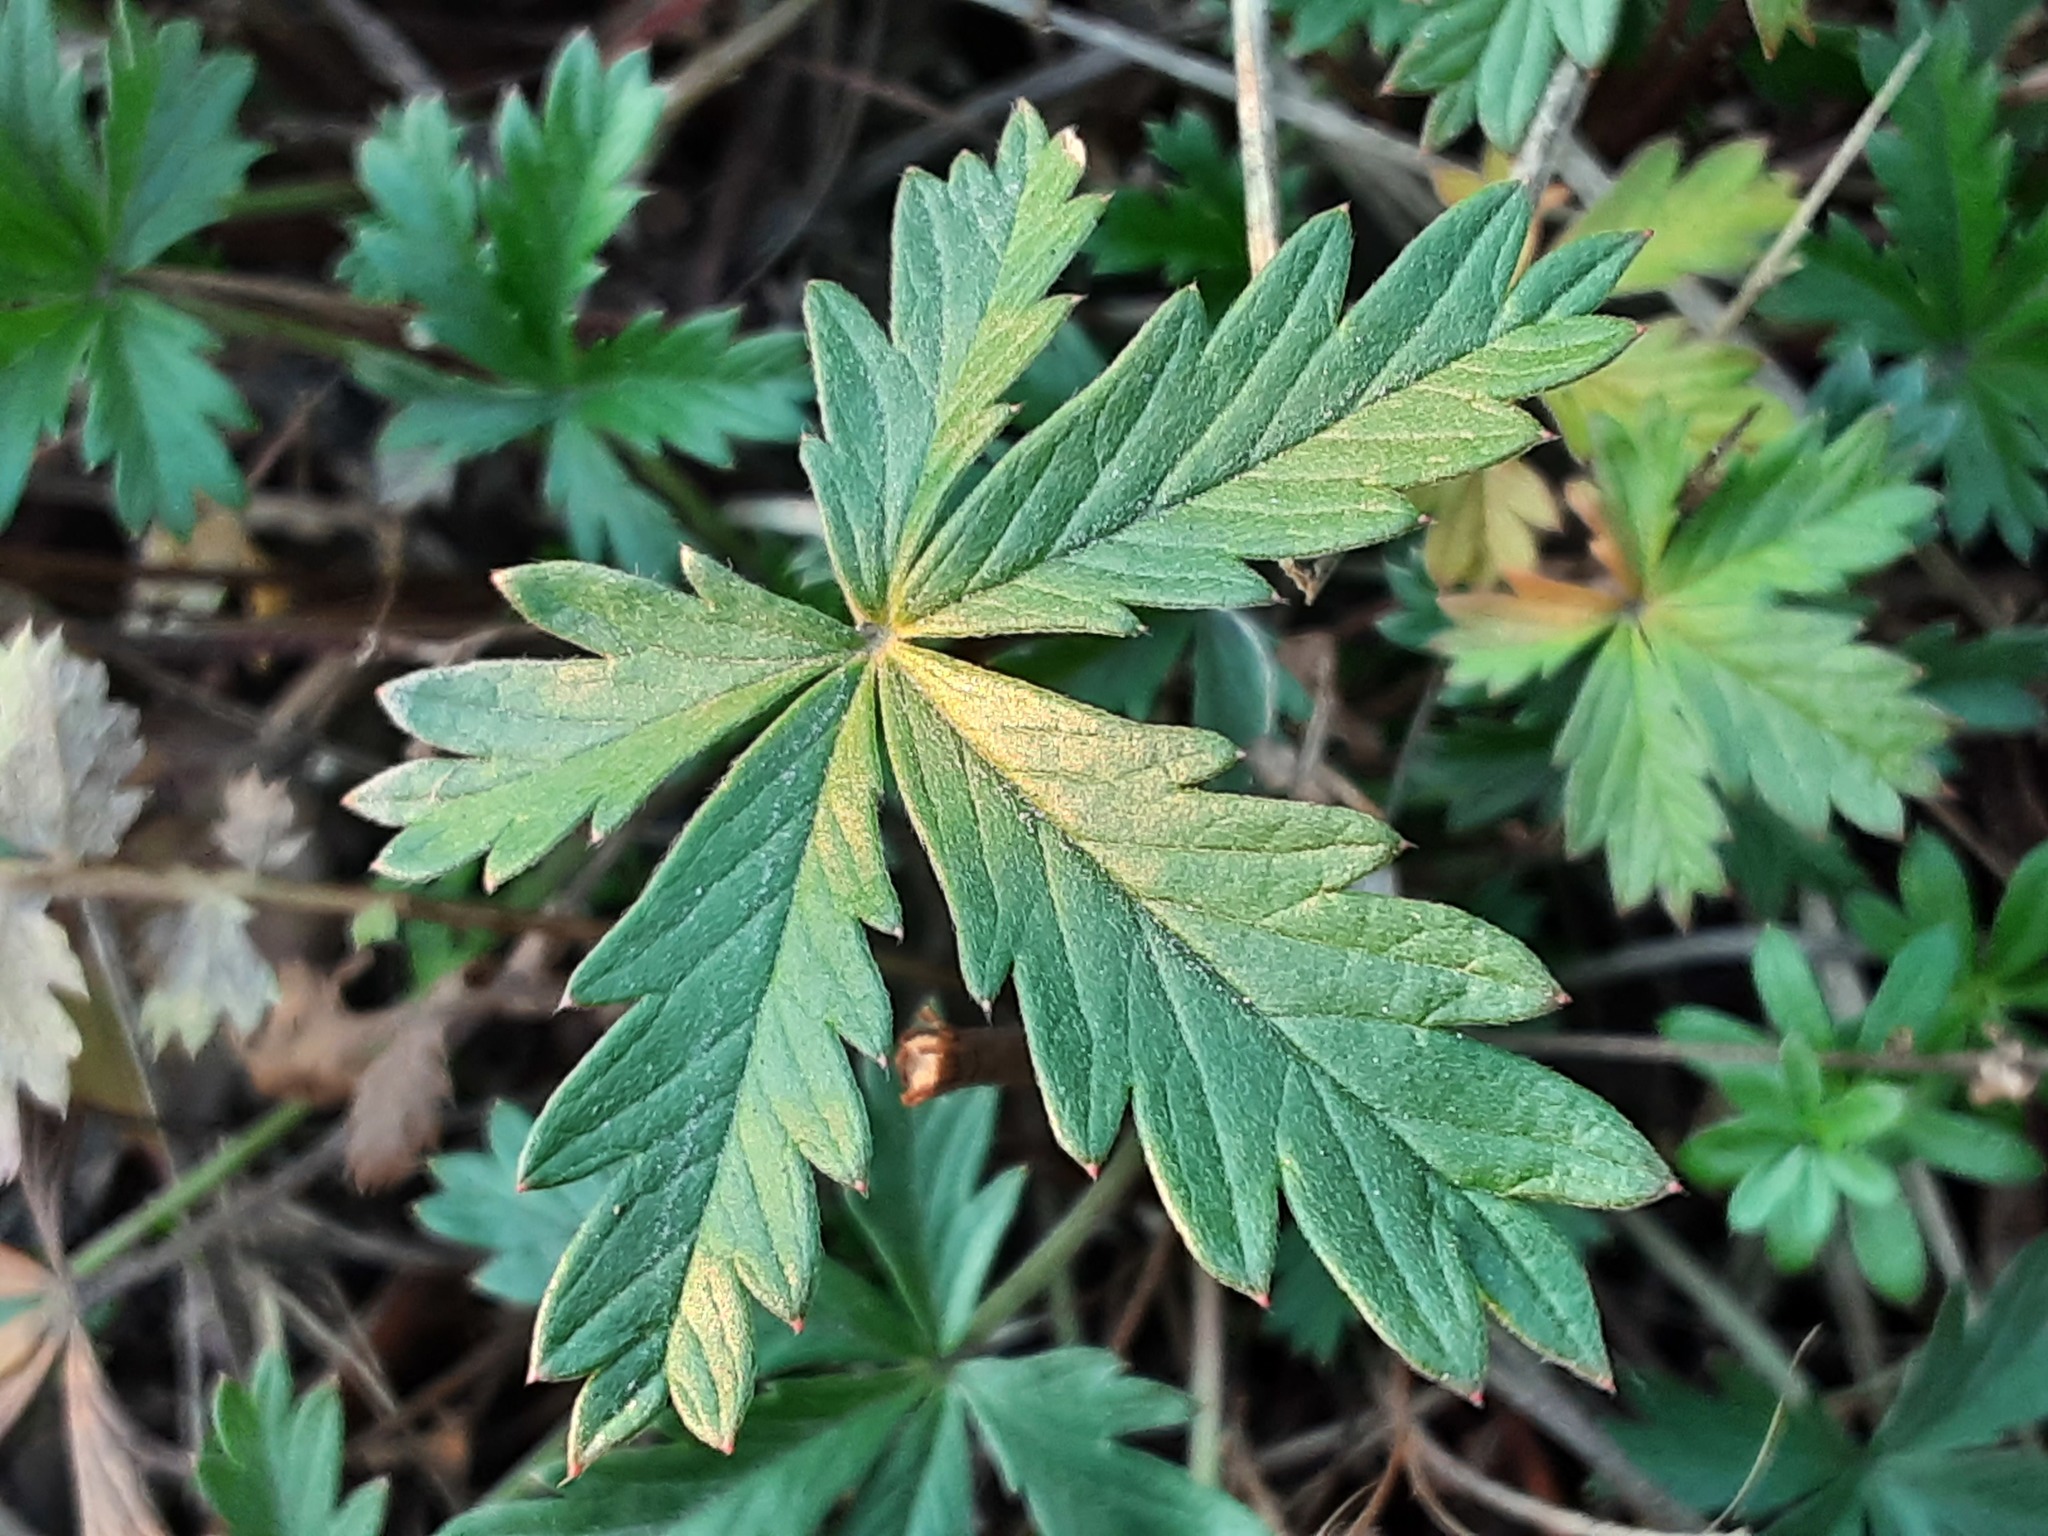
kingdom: Plantae
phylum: Tracheophyta
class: Magnoliopsida
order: Rosales
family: Rosaceae
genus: Potentilla
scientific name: Potentilla argentea
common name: Hoary cinquefoil
